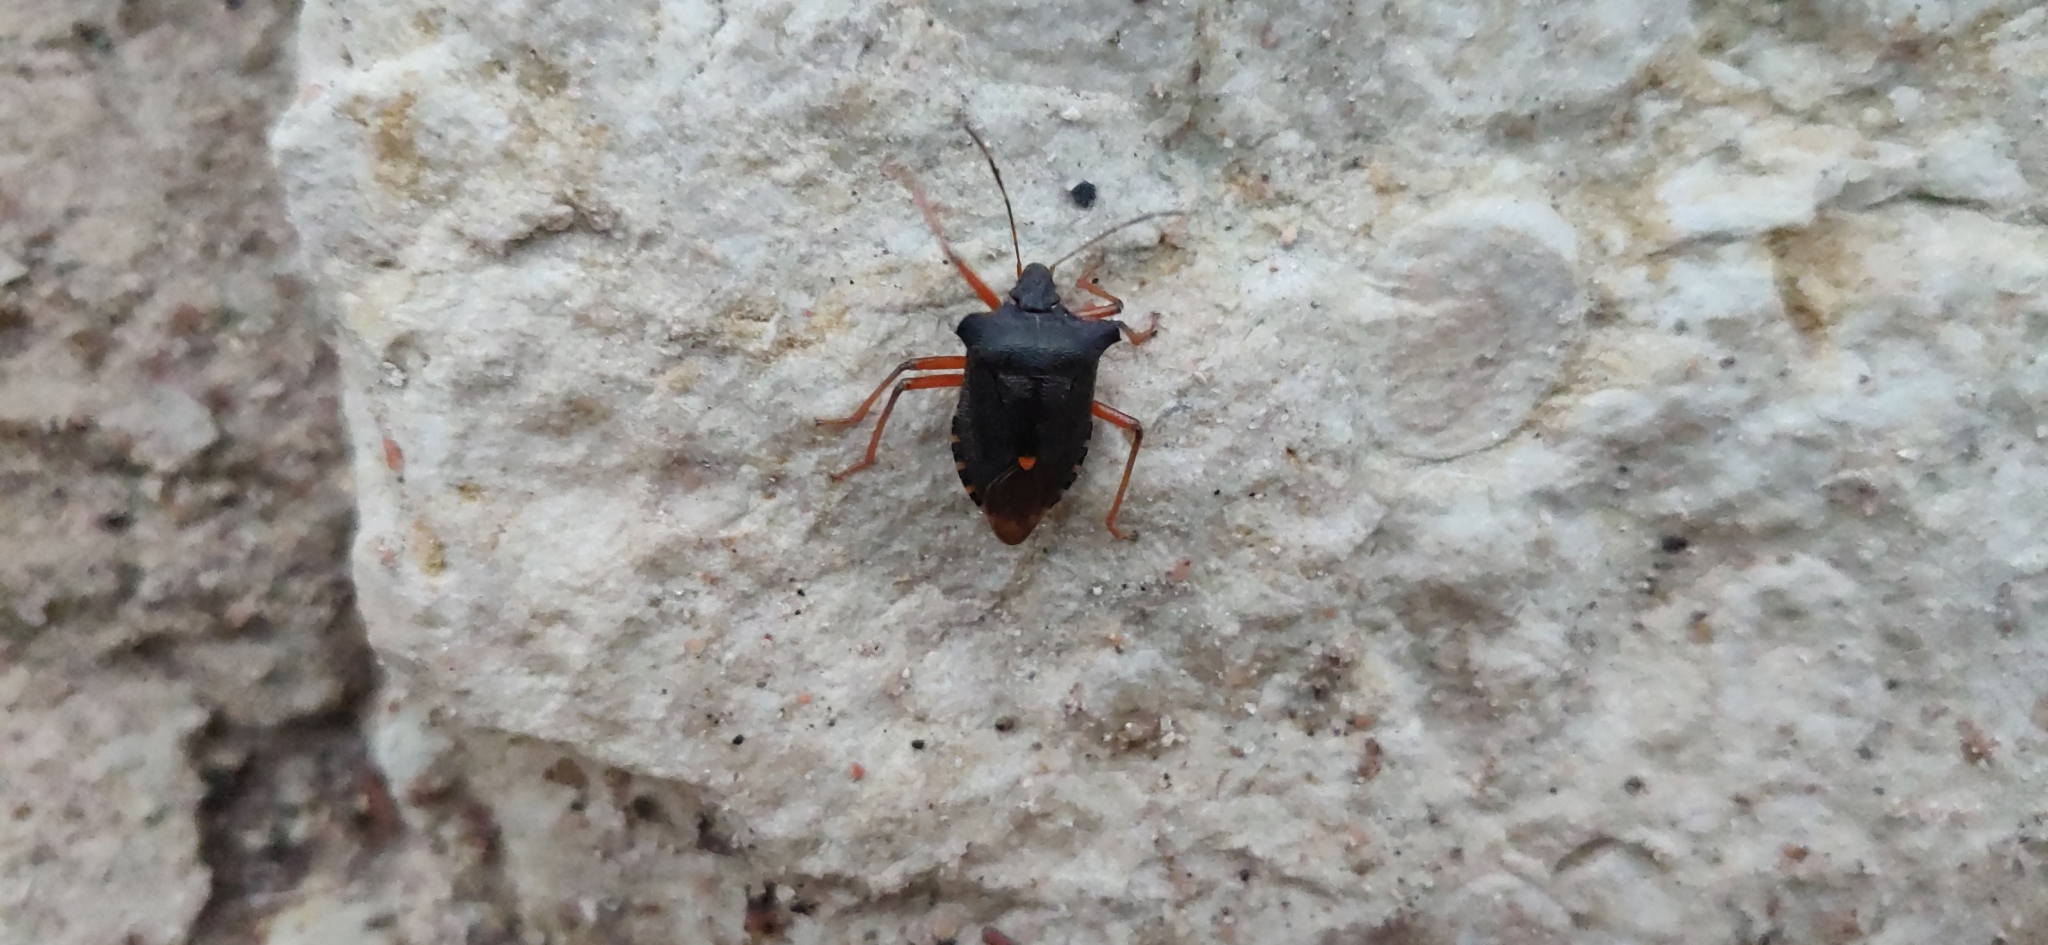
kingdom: Animalia
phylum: Arthropoda
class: Insecta
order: Hemiptera
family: Pentatomidae
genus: Pentatoma
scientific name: Pentatoma rufipes
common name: Forest bug
